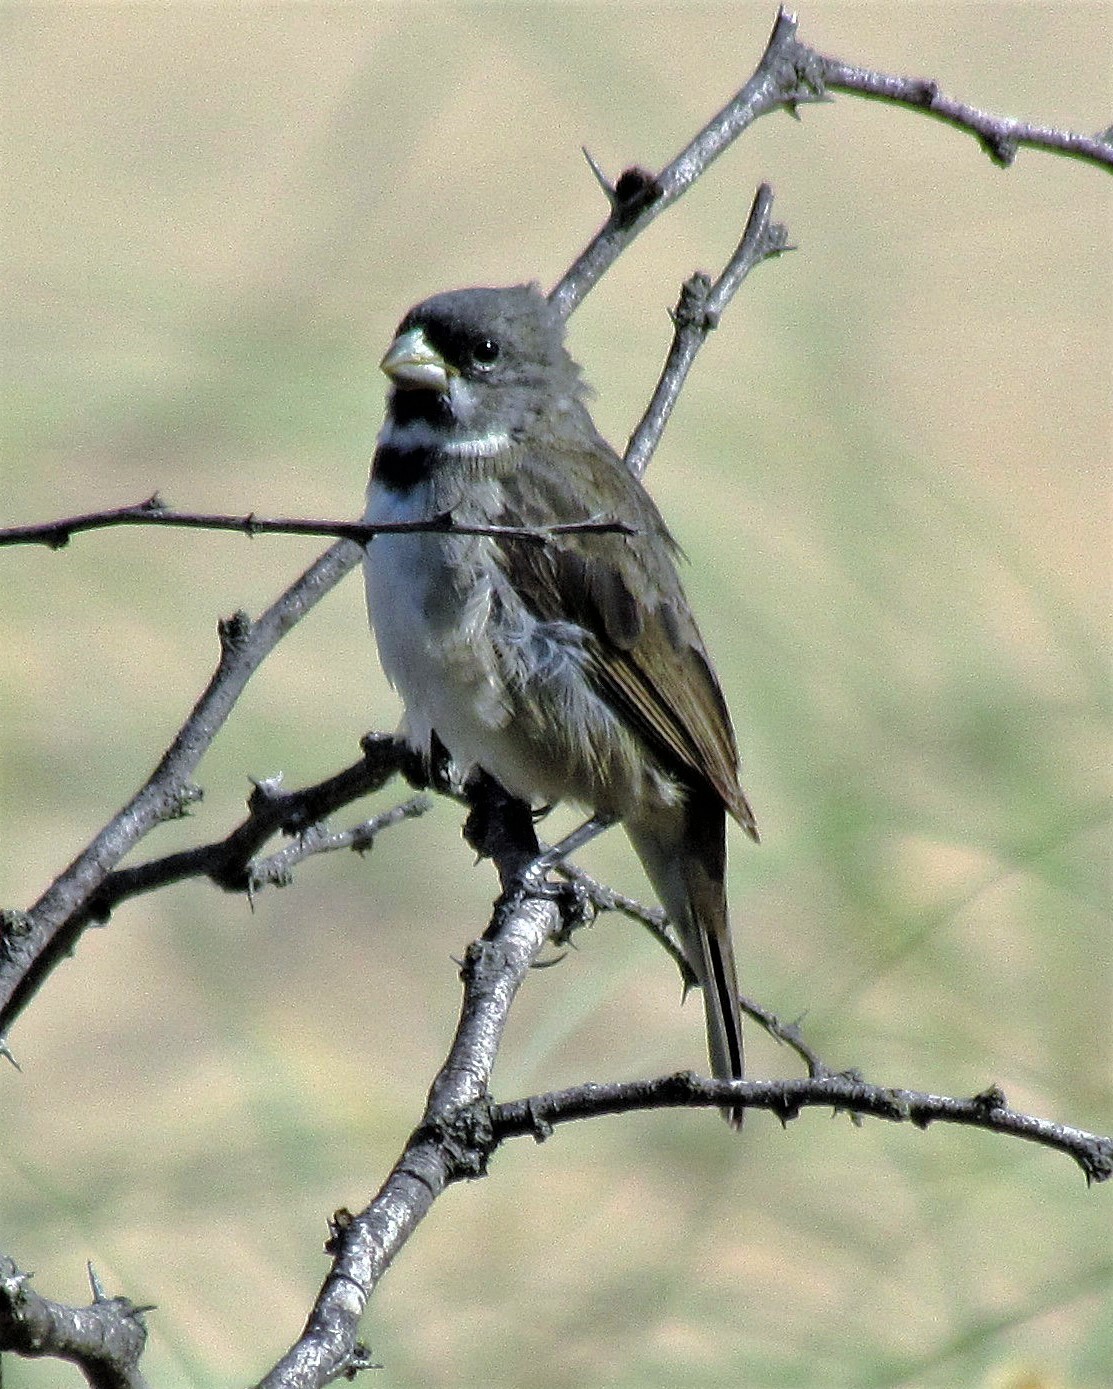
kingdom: Animalia
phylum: Chordata
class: Aves
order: Passeriformes
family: Thraupidae
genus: Sporophila
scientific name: Sporophila caerulescens
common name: Double-collared seedeater
